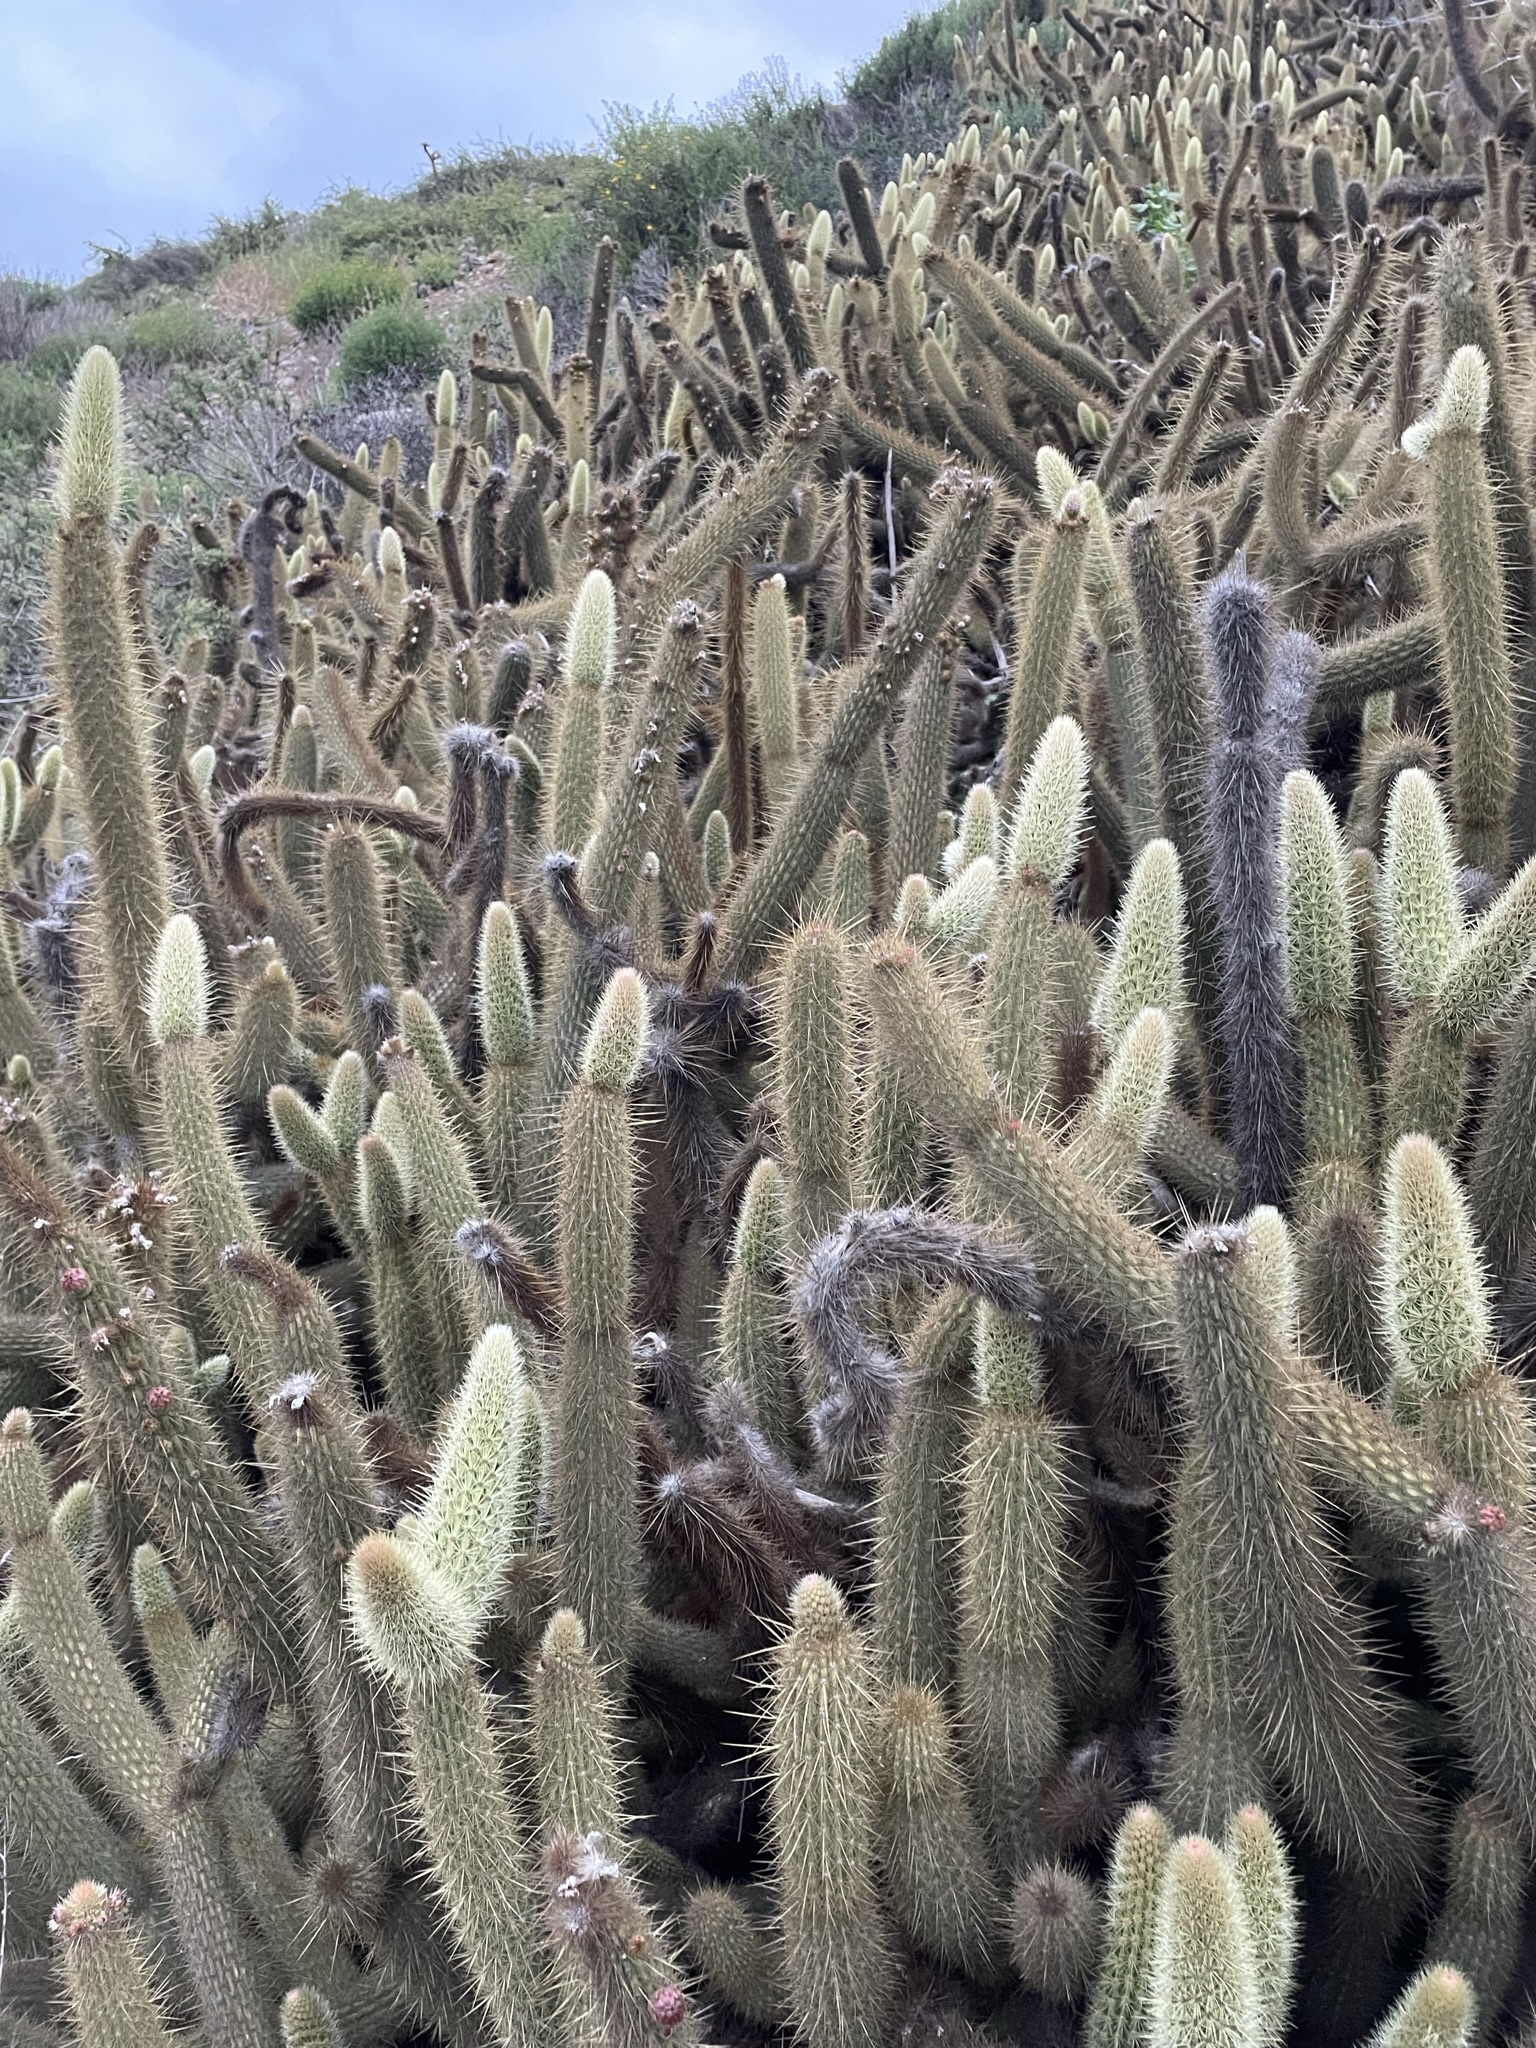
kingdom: Plantae
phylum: Tracheophyta
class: Magnoliopsida
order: Caryophyllales
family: Cactaceae
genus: Bergerocactus
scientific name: Bergerocactus emoryi
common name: Golden snakecactus
